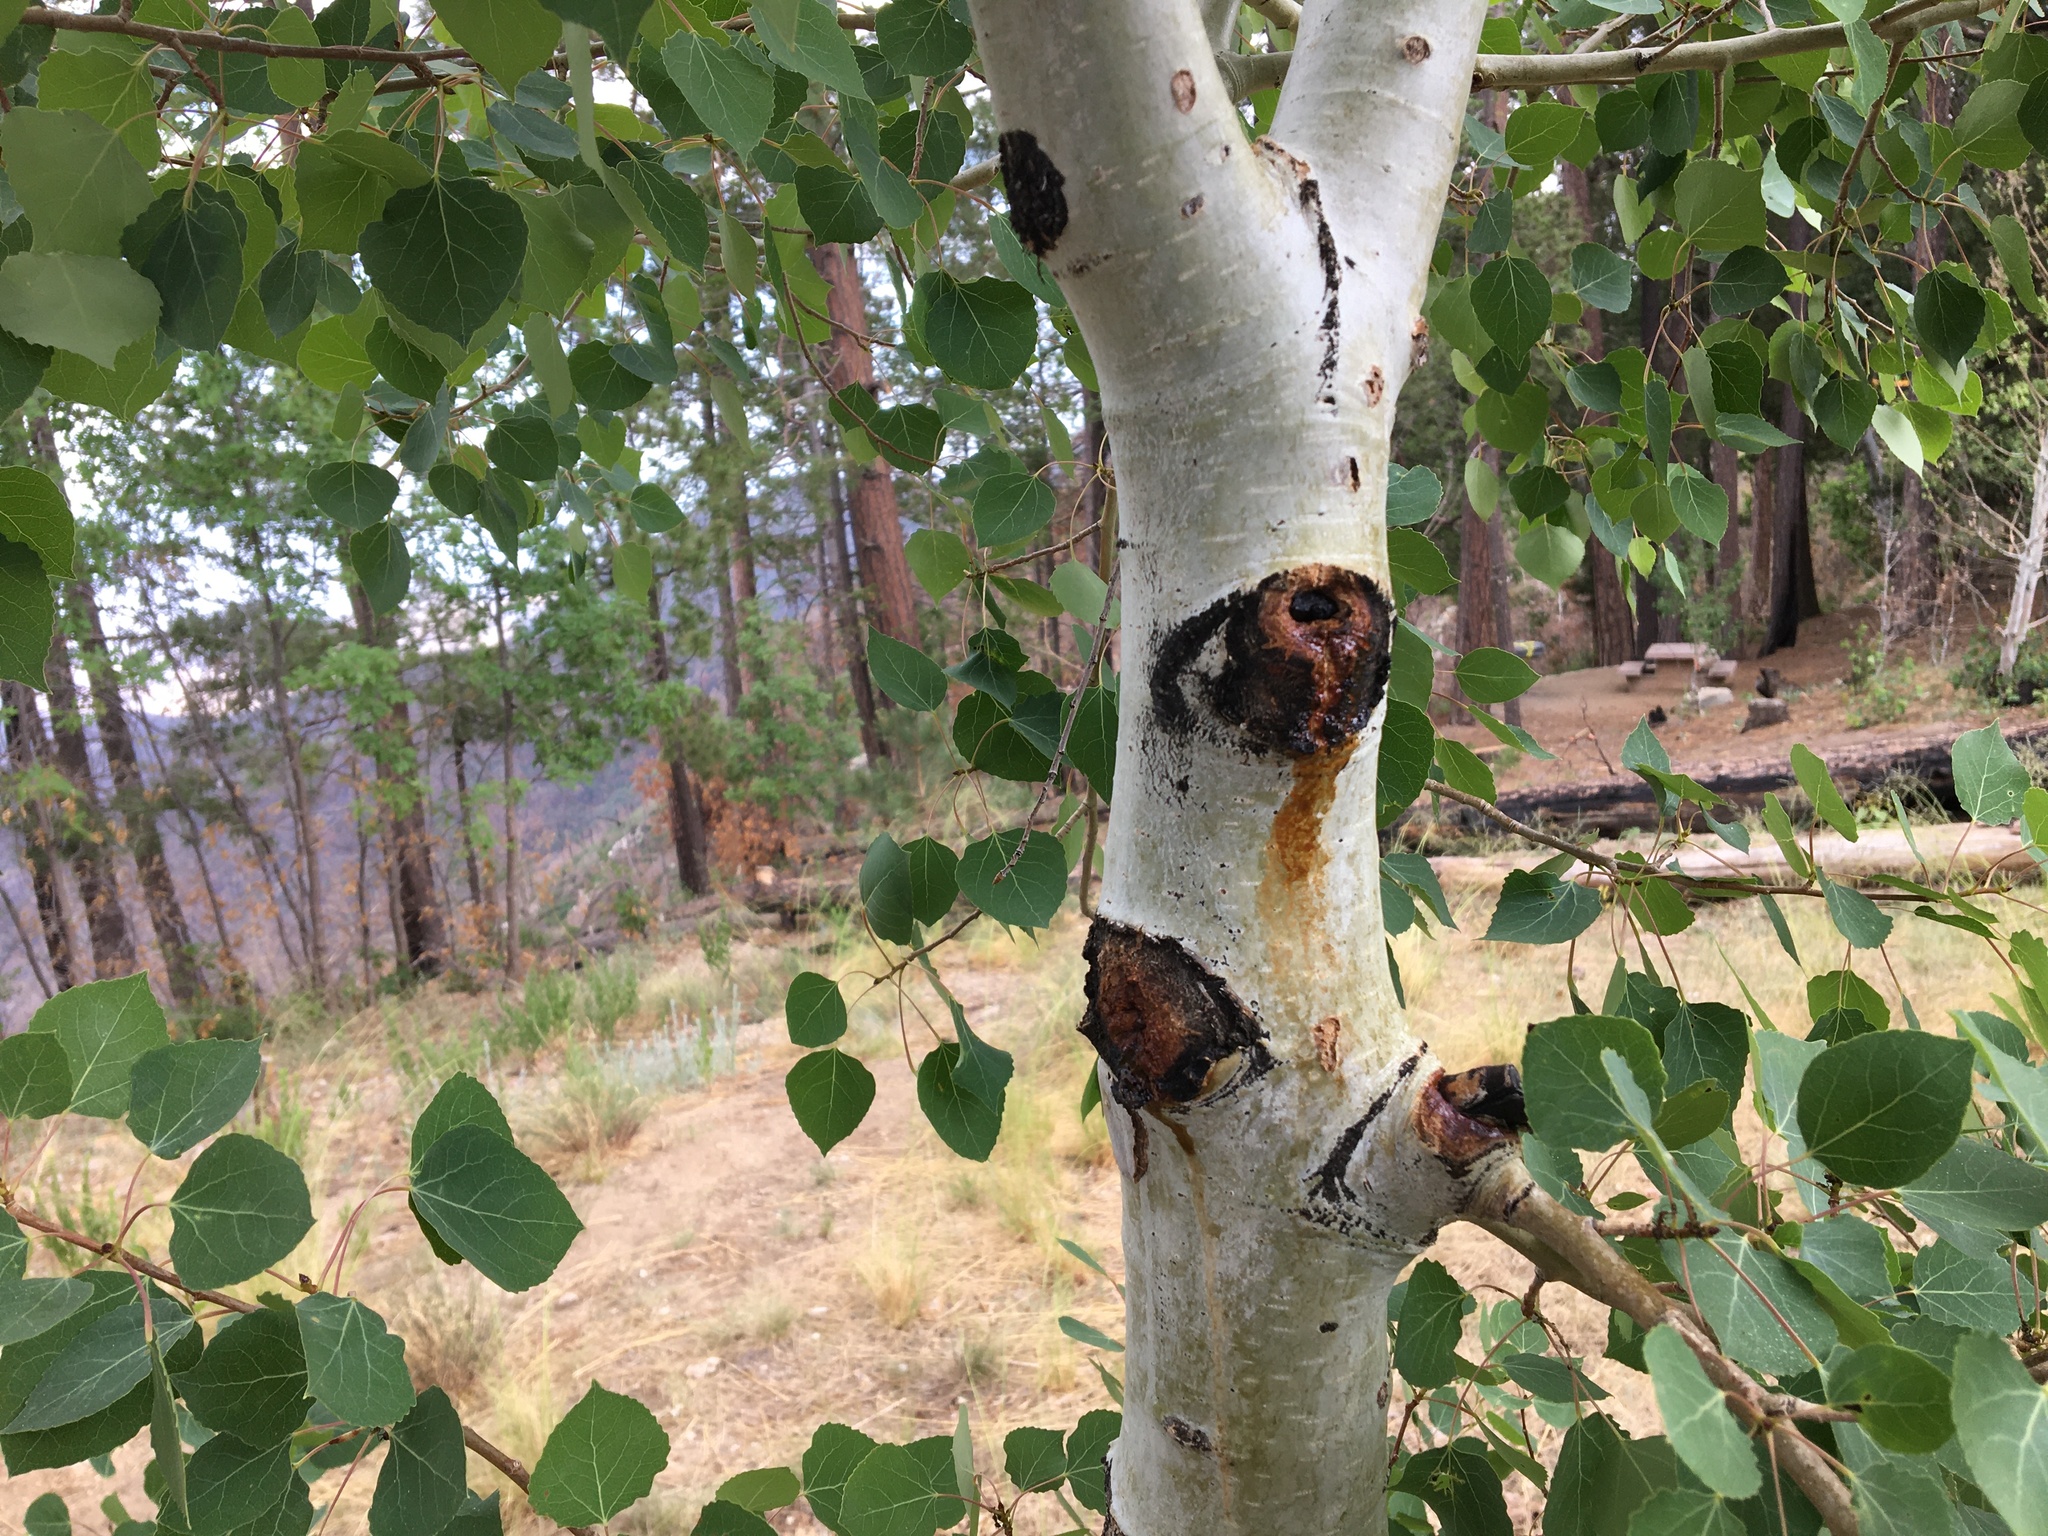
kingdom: Plantae
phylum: Tracheophyta
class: Magnoliopsida
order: Malpighiales
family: Salicaceae
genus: Populus
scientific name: Populus tremuloides
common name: Quaking aspen
